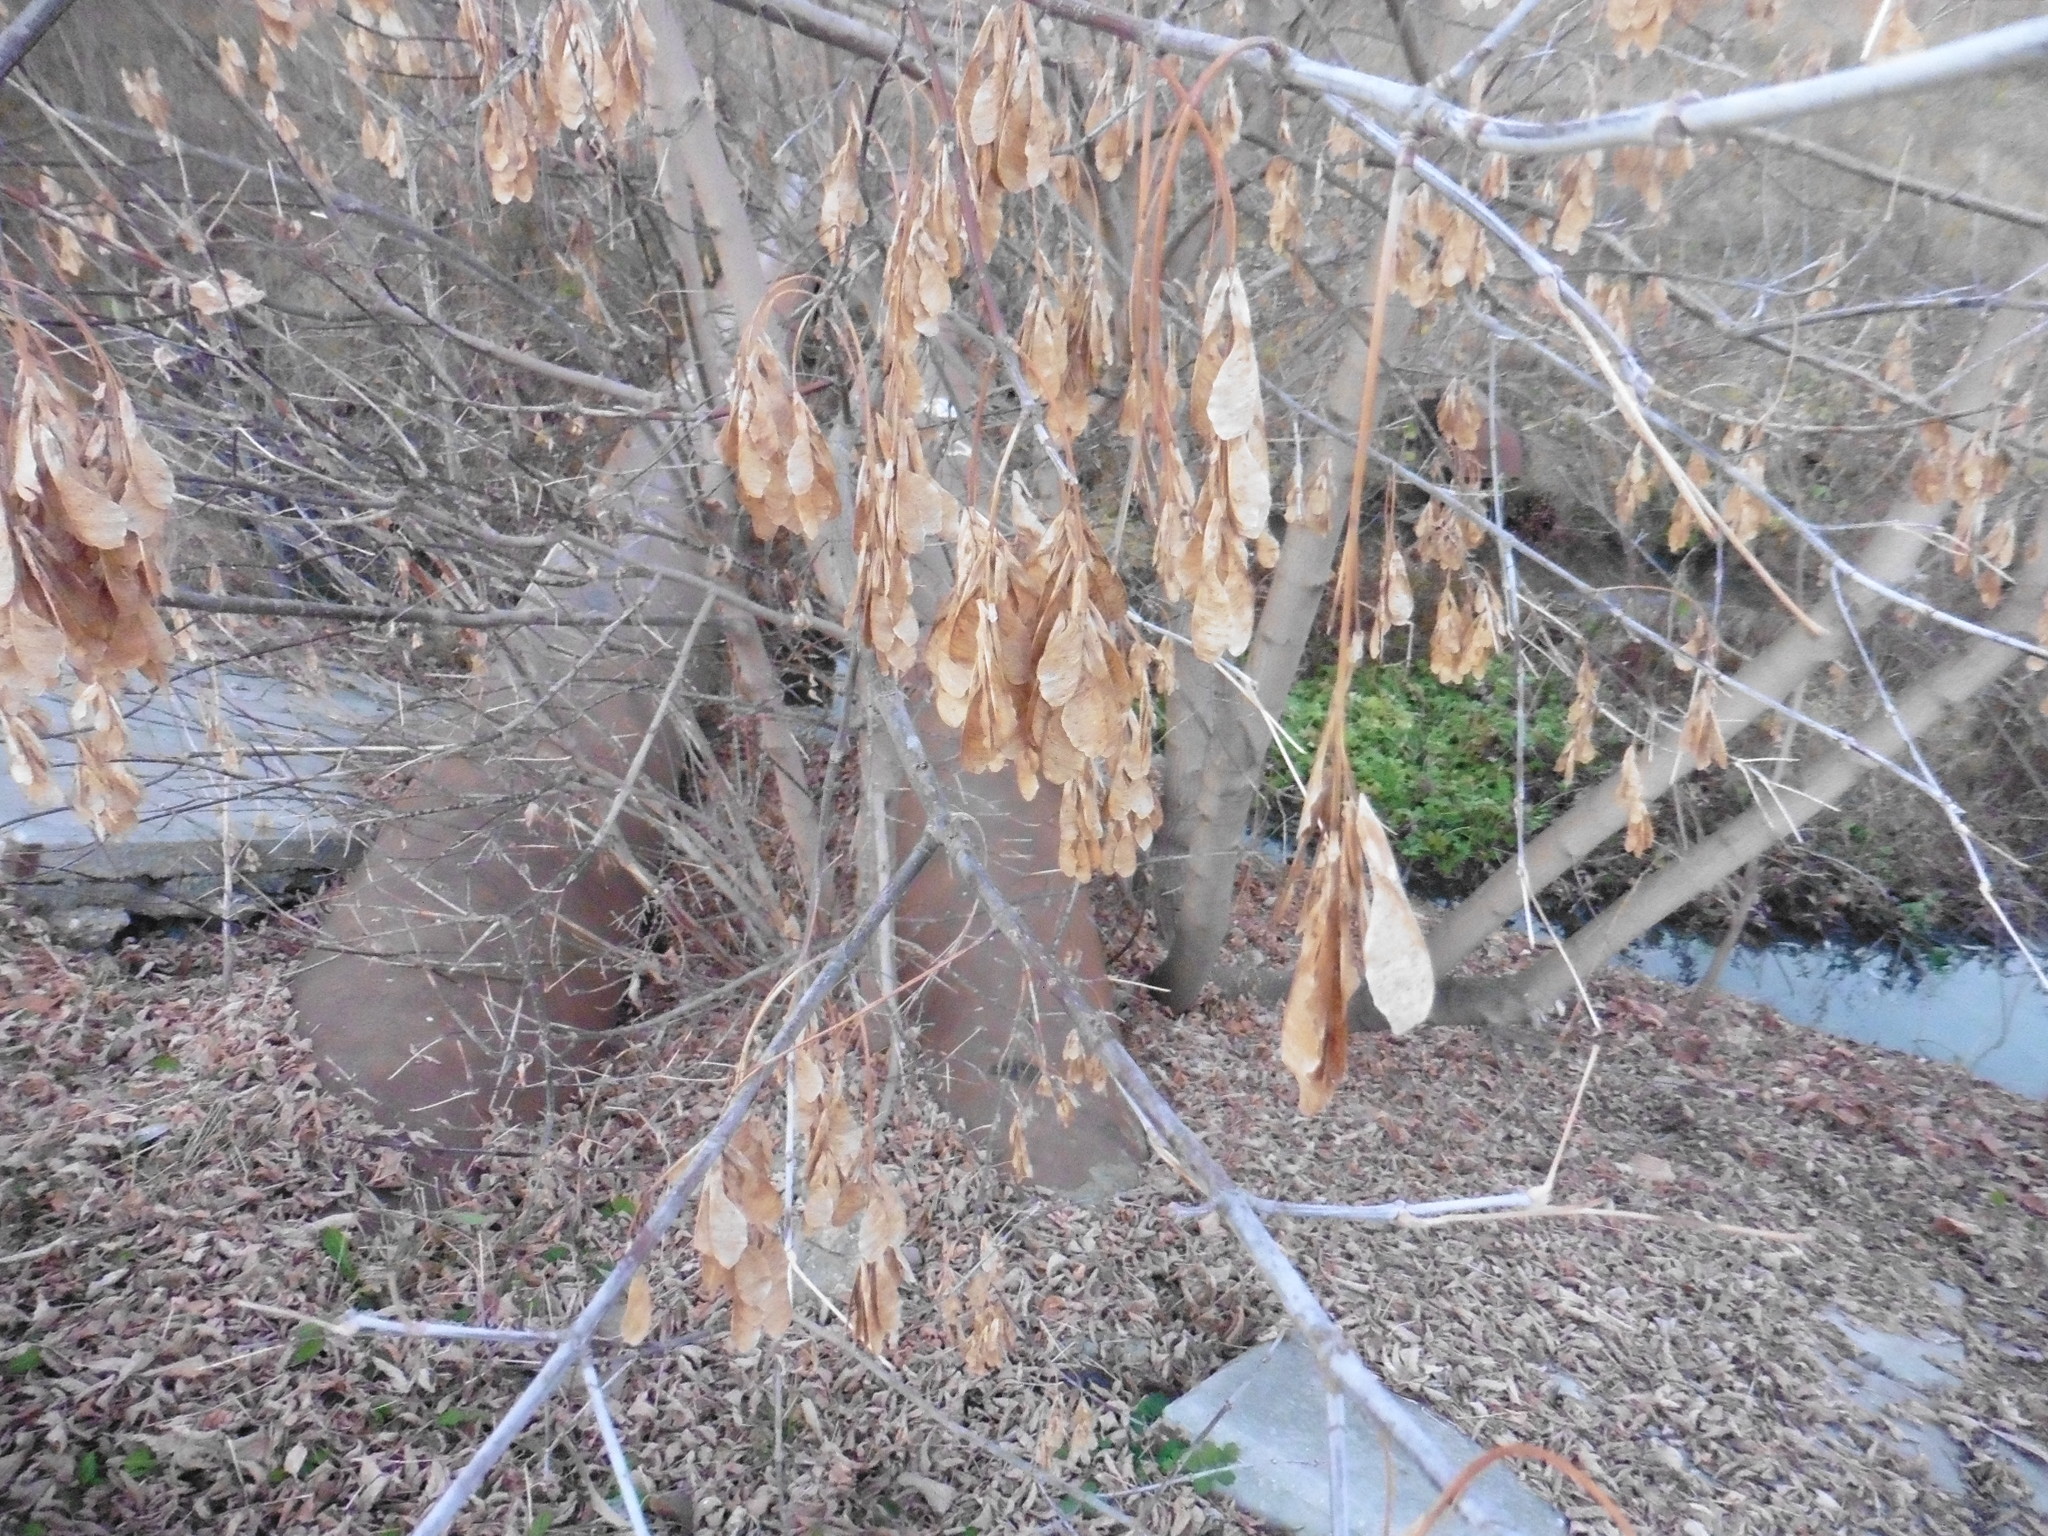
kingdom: Plantae
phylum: Tracheophyta
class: Magnoliopsida
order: Sapindales
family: Sapindaceae
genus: Acer
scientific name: Acer negundo
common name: Ashleaf maple
